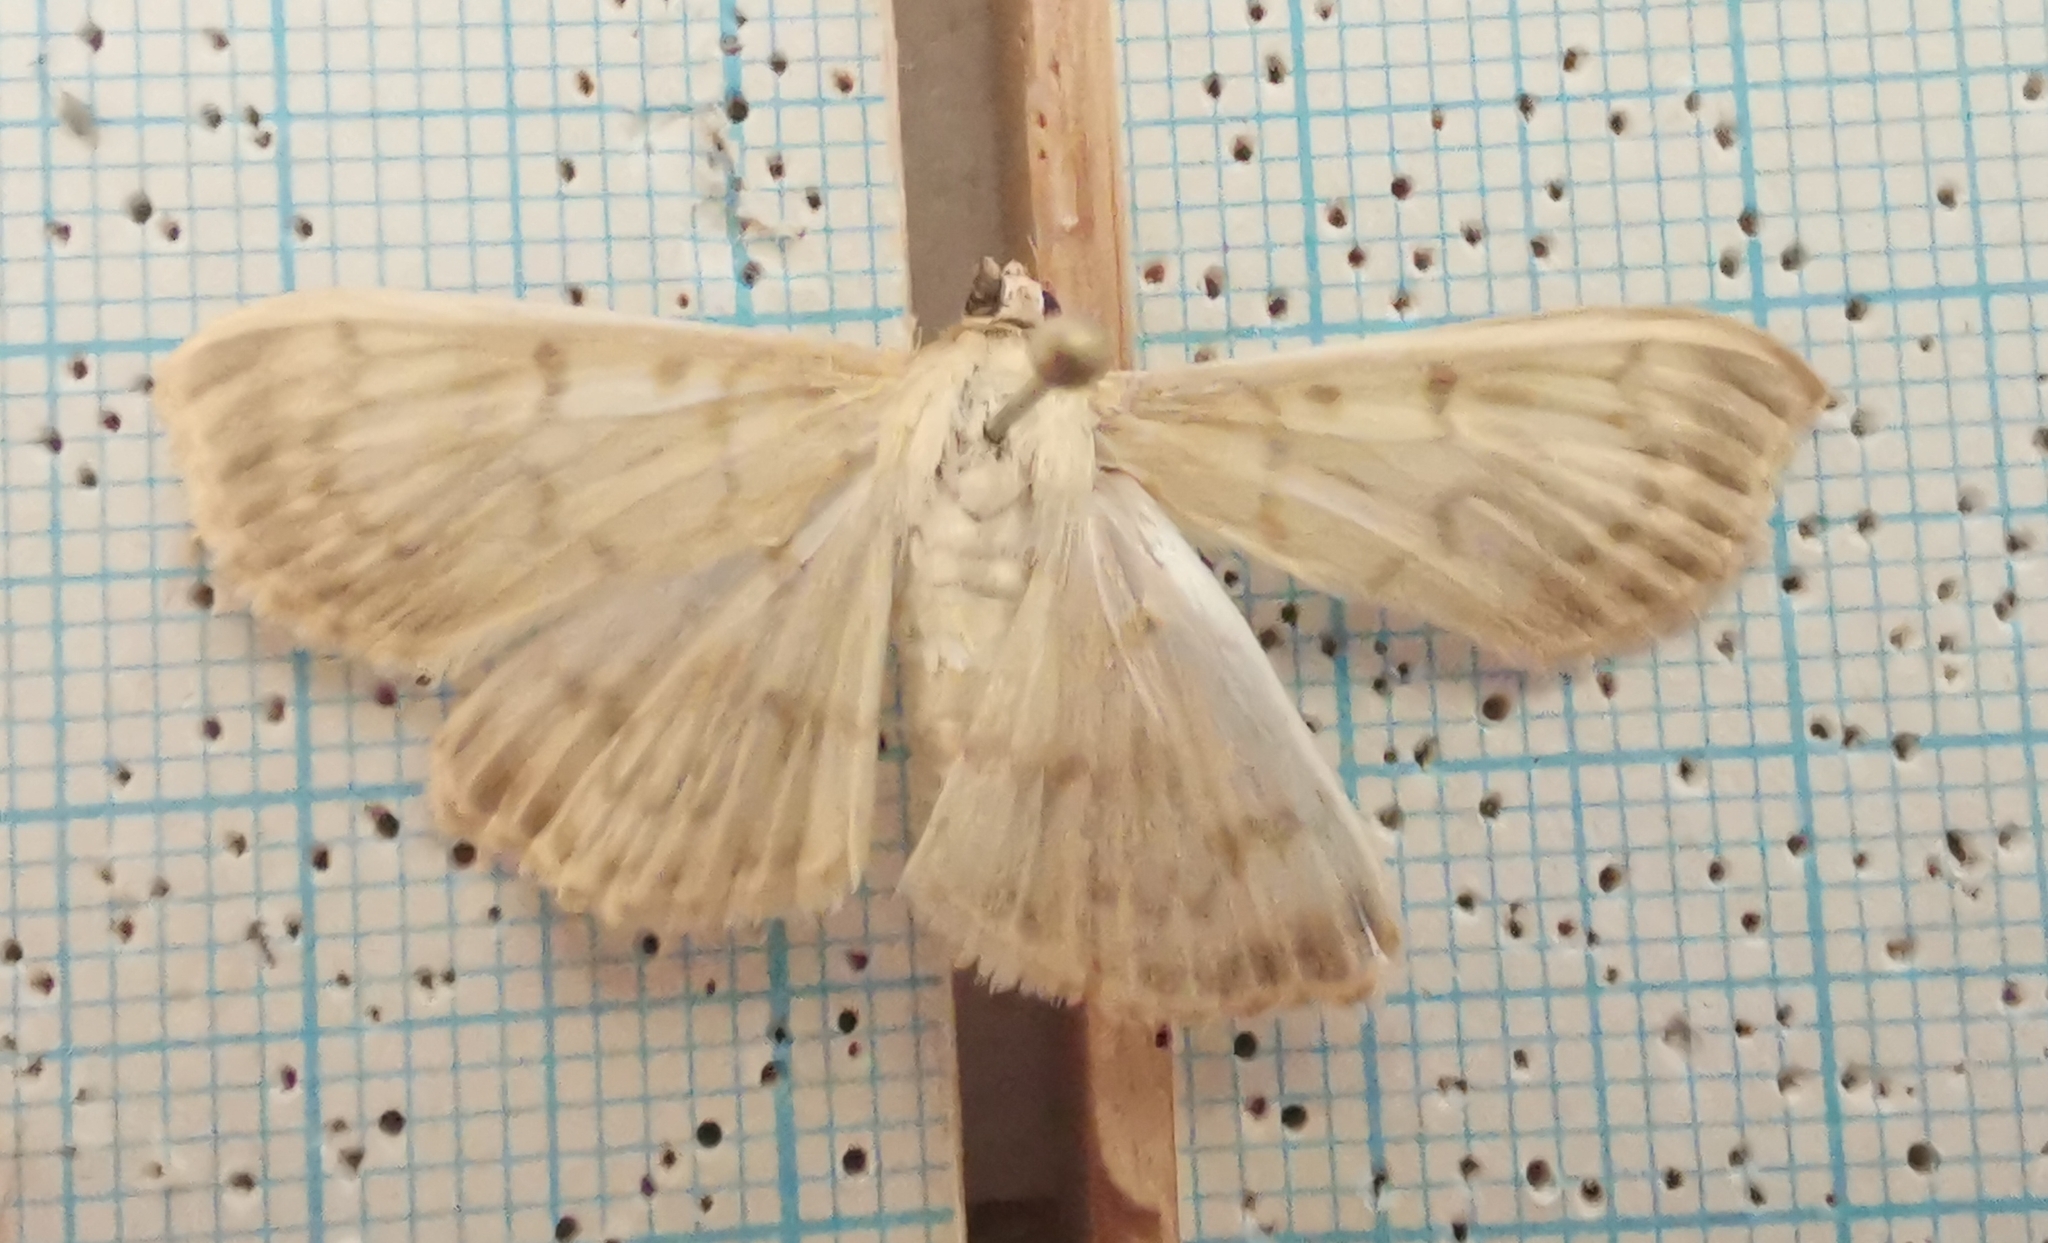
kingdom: Animalia
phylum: Arthropoda
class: Insecta
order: Lepidoptera
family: Crambidae
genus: Patania
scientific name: Patania ruralis
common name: Mother of pearl
